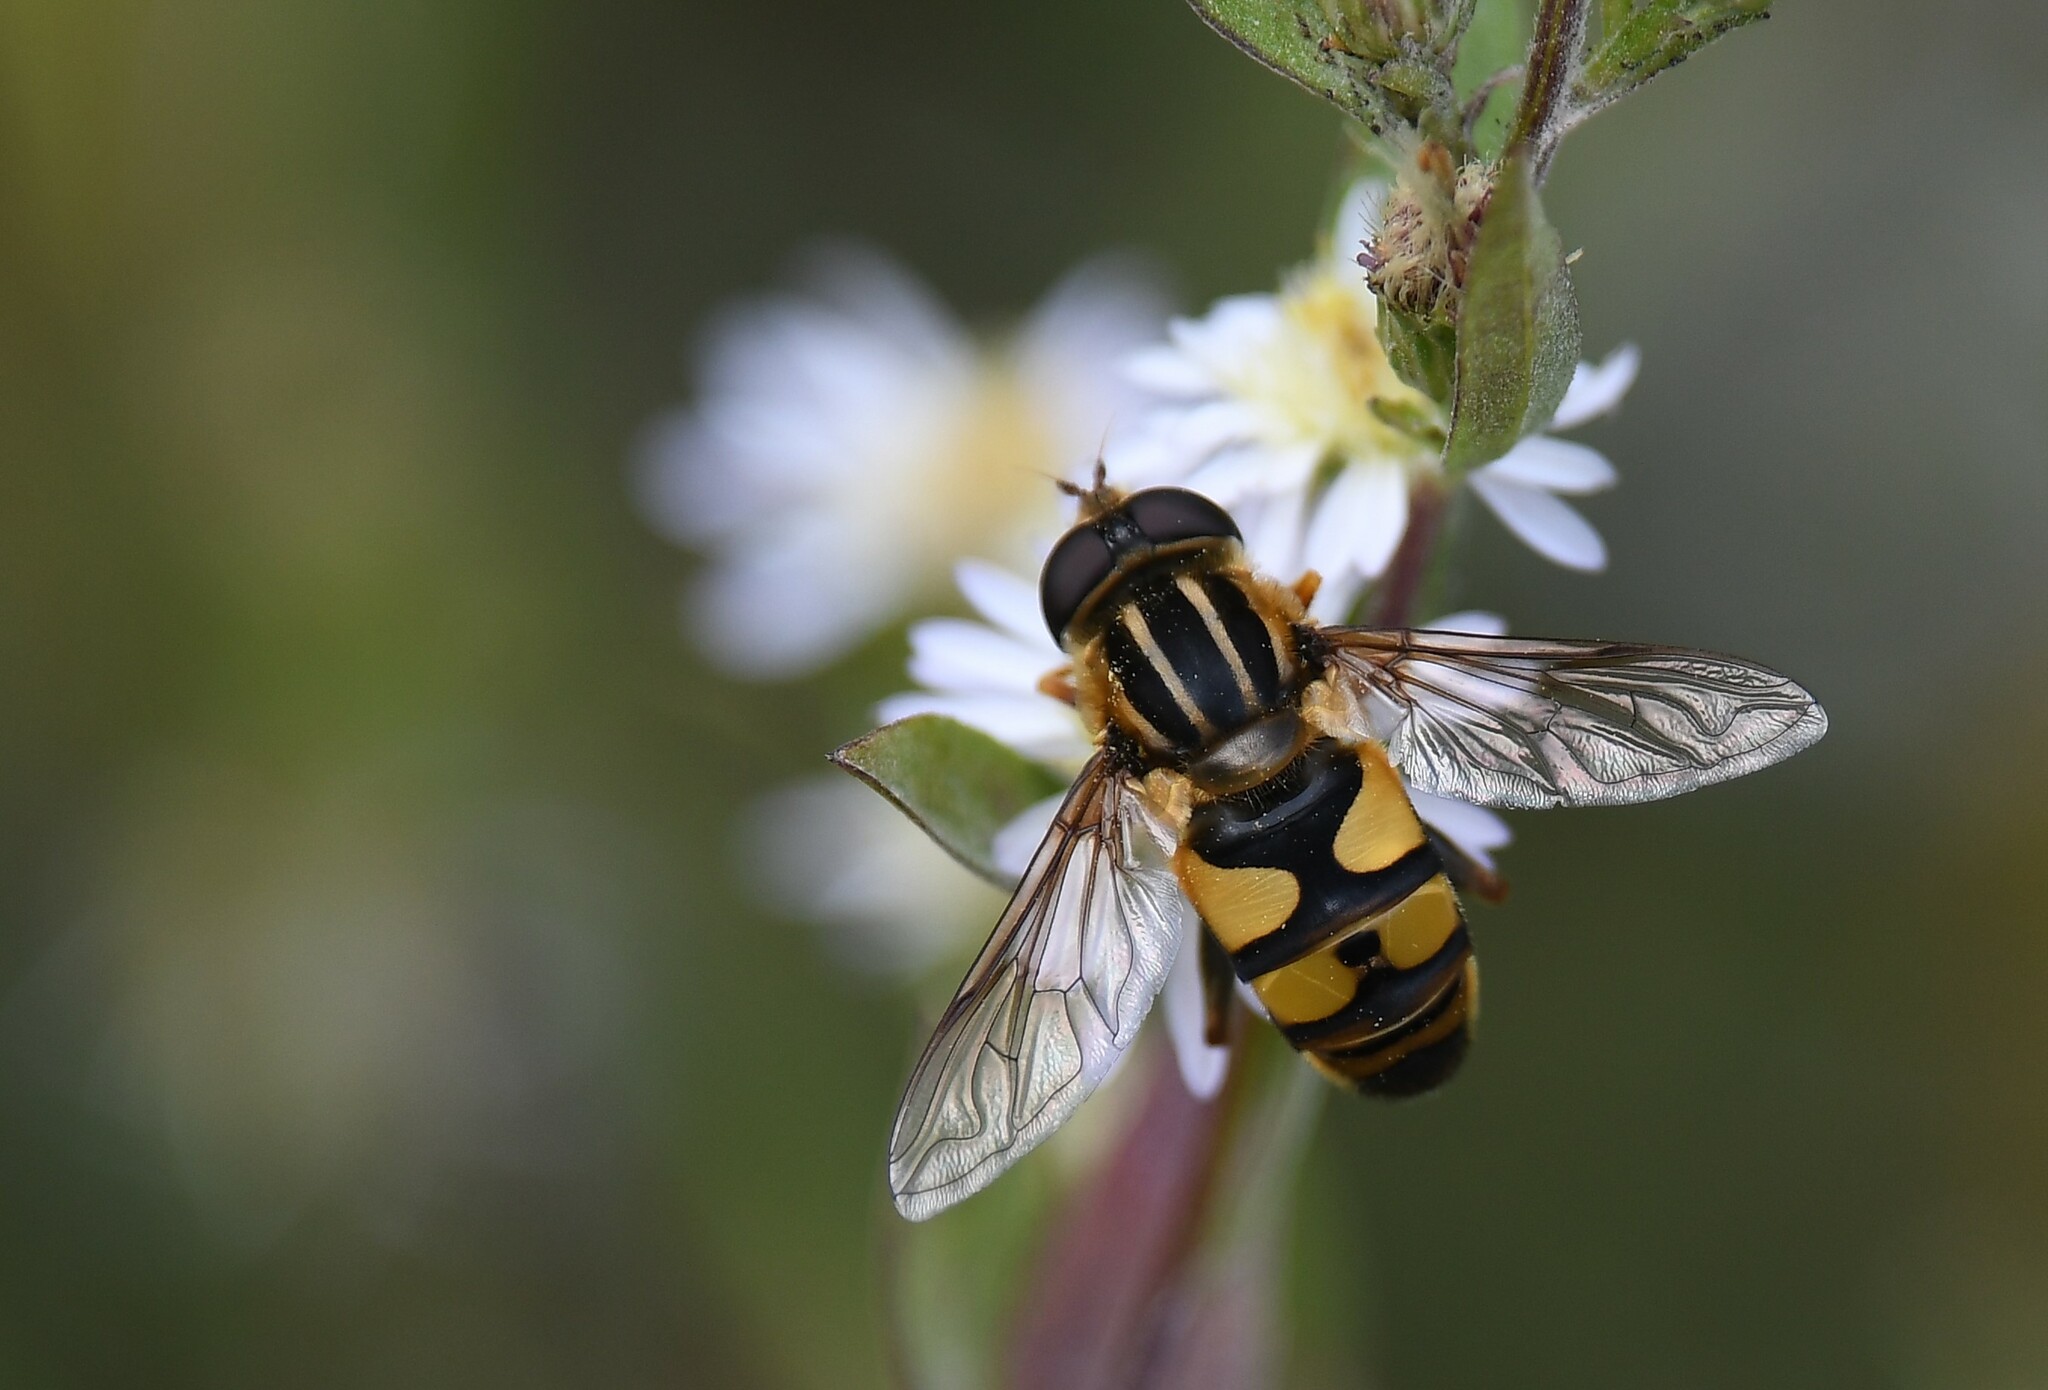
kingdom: Animalia
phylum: Arthropoda
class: Insecta
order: Diptera
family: Syrphidae
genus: Helophilus
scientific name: Helophilus fasciatus
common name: Narrow-headed marsh fly
